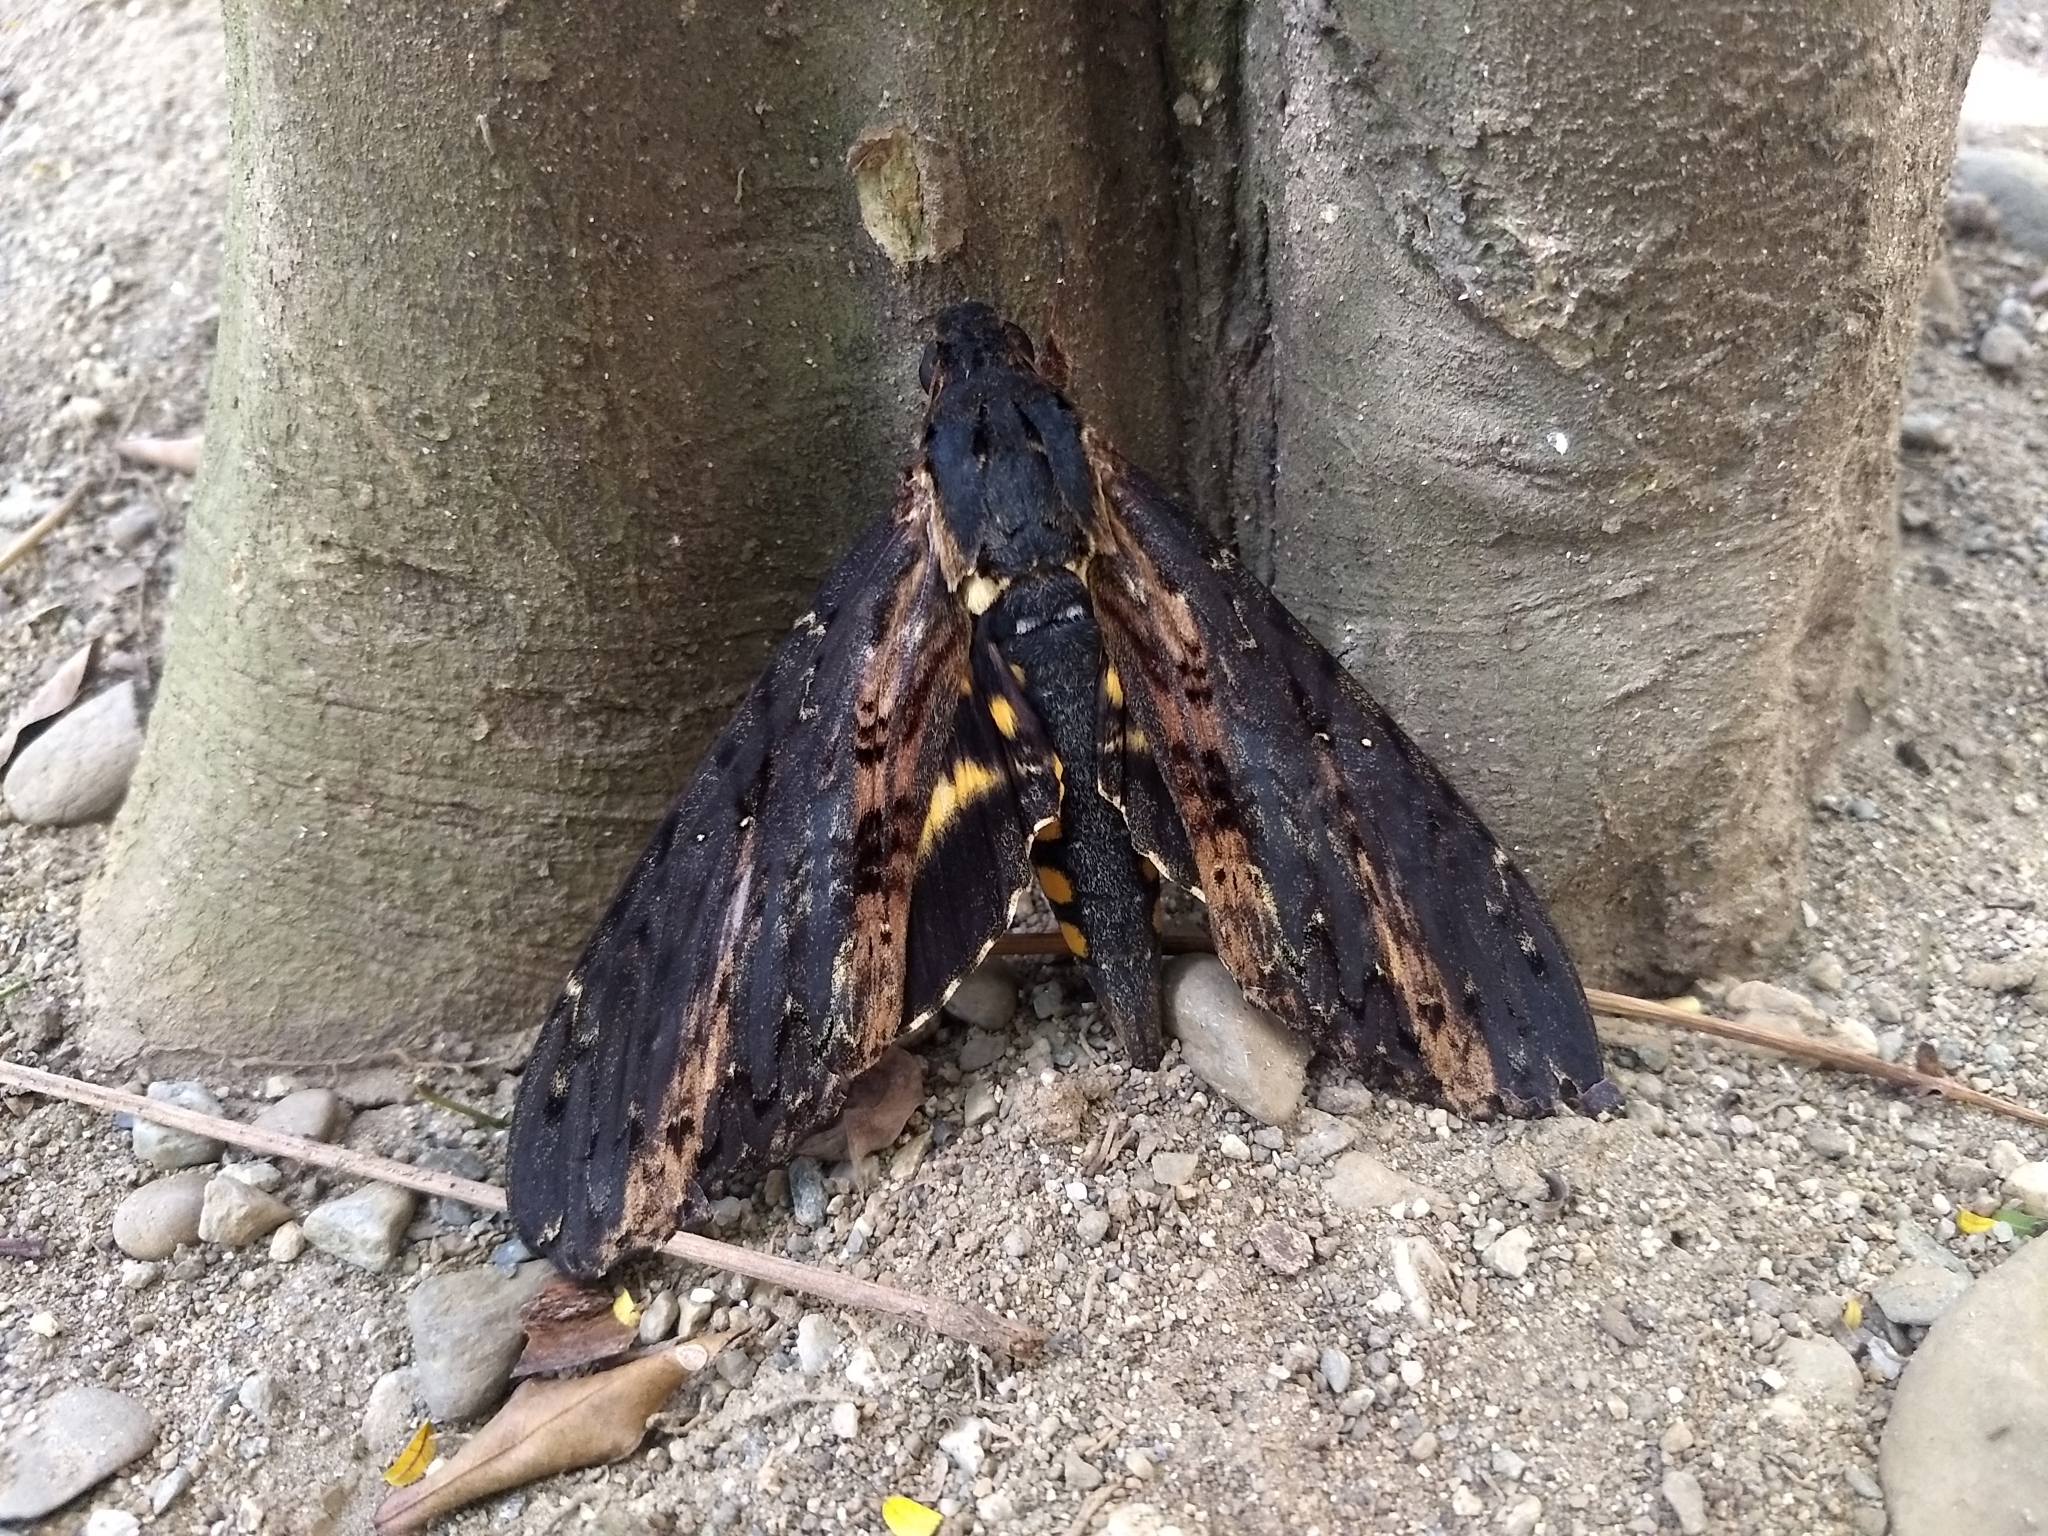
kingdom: Animalia
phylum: Arthropoda
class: Insecta
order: Lepidoptera
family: Sphingidae
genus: Neococytius
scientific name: Neococytius cluentius
